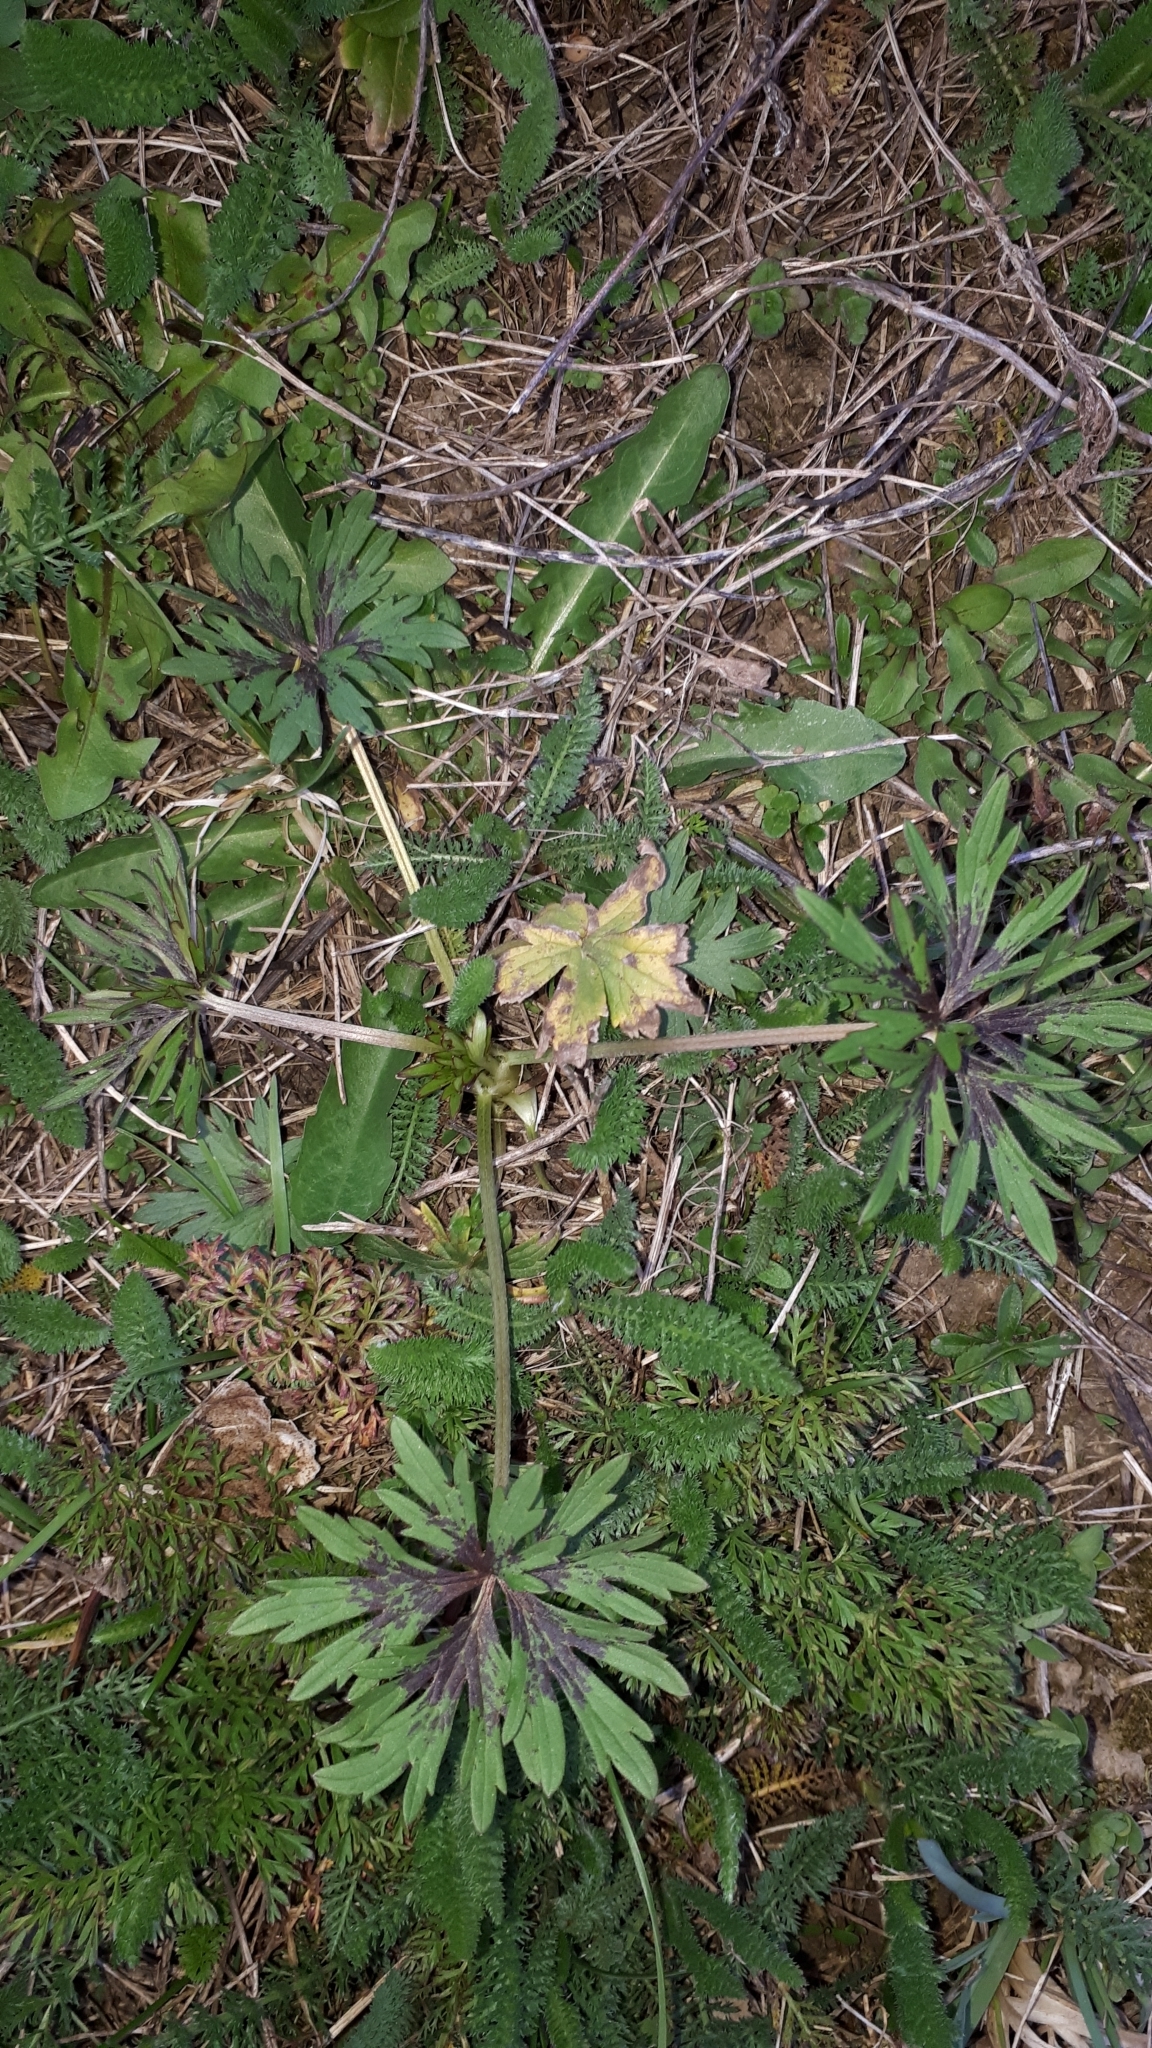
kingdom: Plantae
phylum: Tracheophyta
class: Magnoliopsida
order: Ranunculales
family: Ranunculaceae
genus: Ranunculus
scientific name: Ranunculus acris
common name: Meadow buttercup
